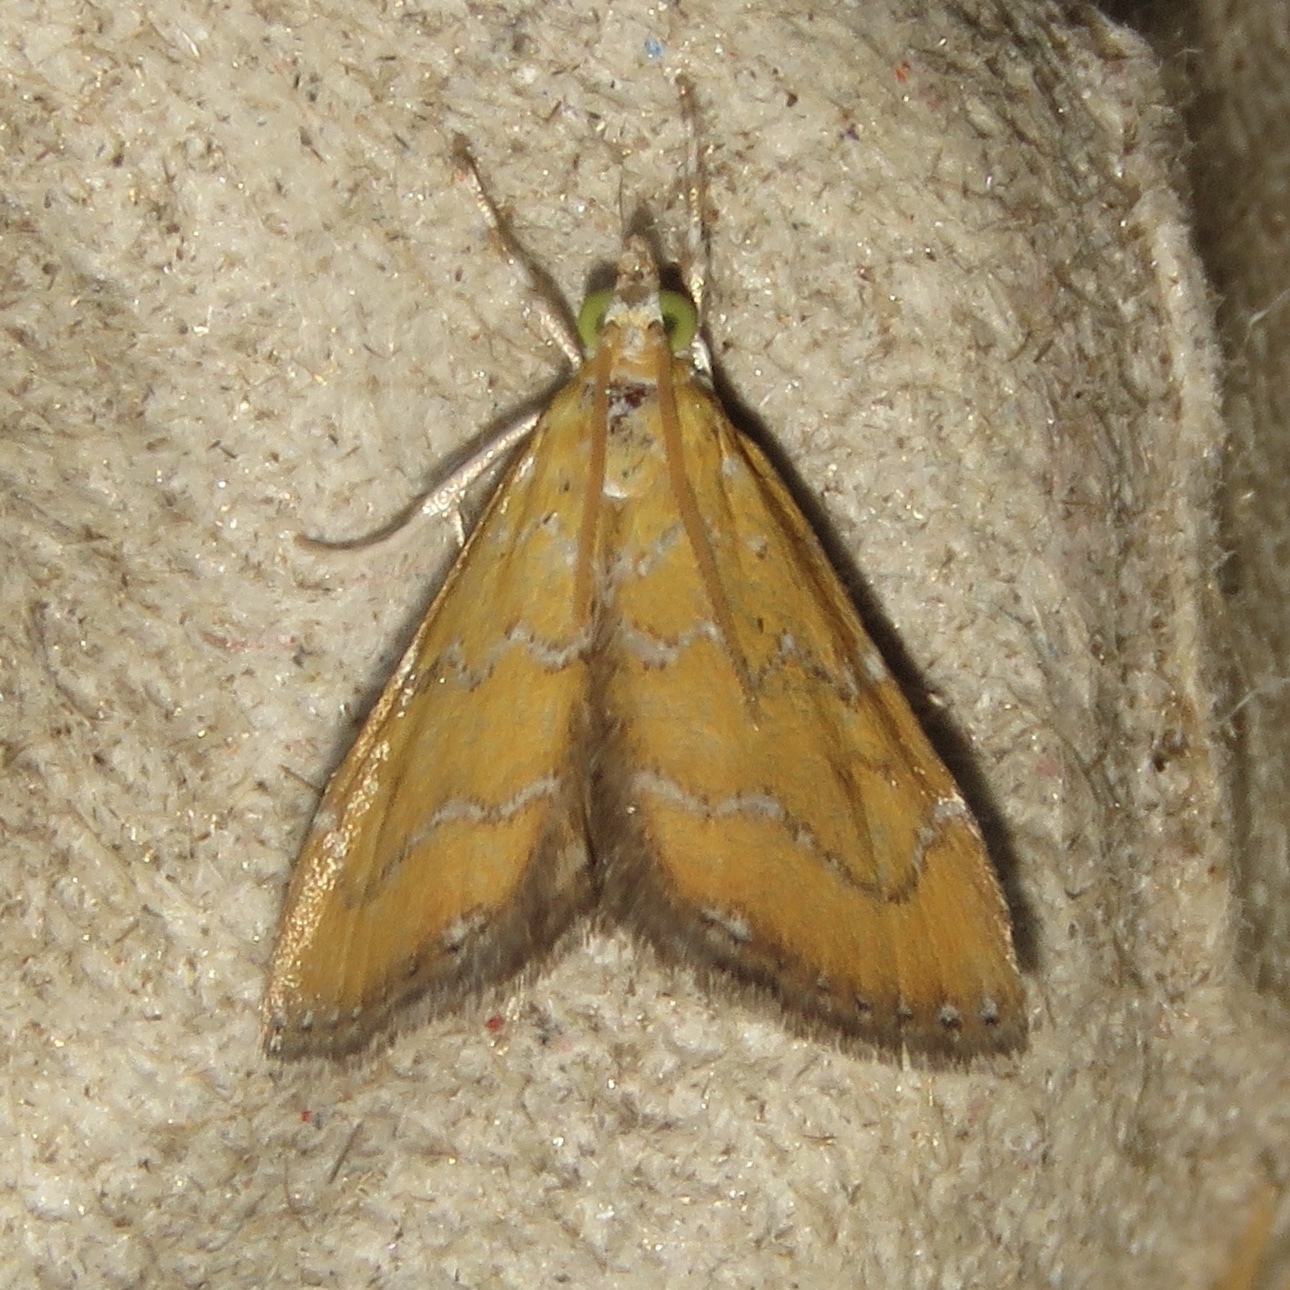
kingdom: Animalia
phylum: Arthropoda
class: Insecta
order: Lepidoptera
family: Crambidae
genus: Xanthophysa
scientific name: Xanthophysa psychicalis
